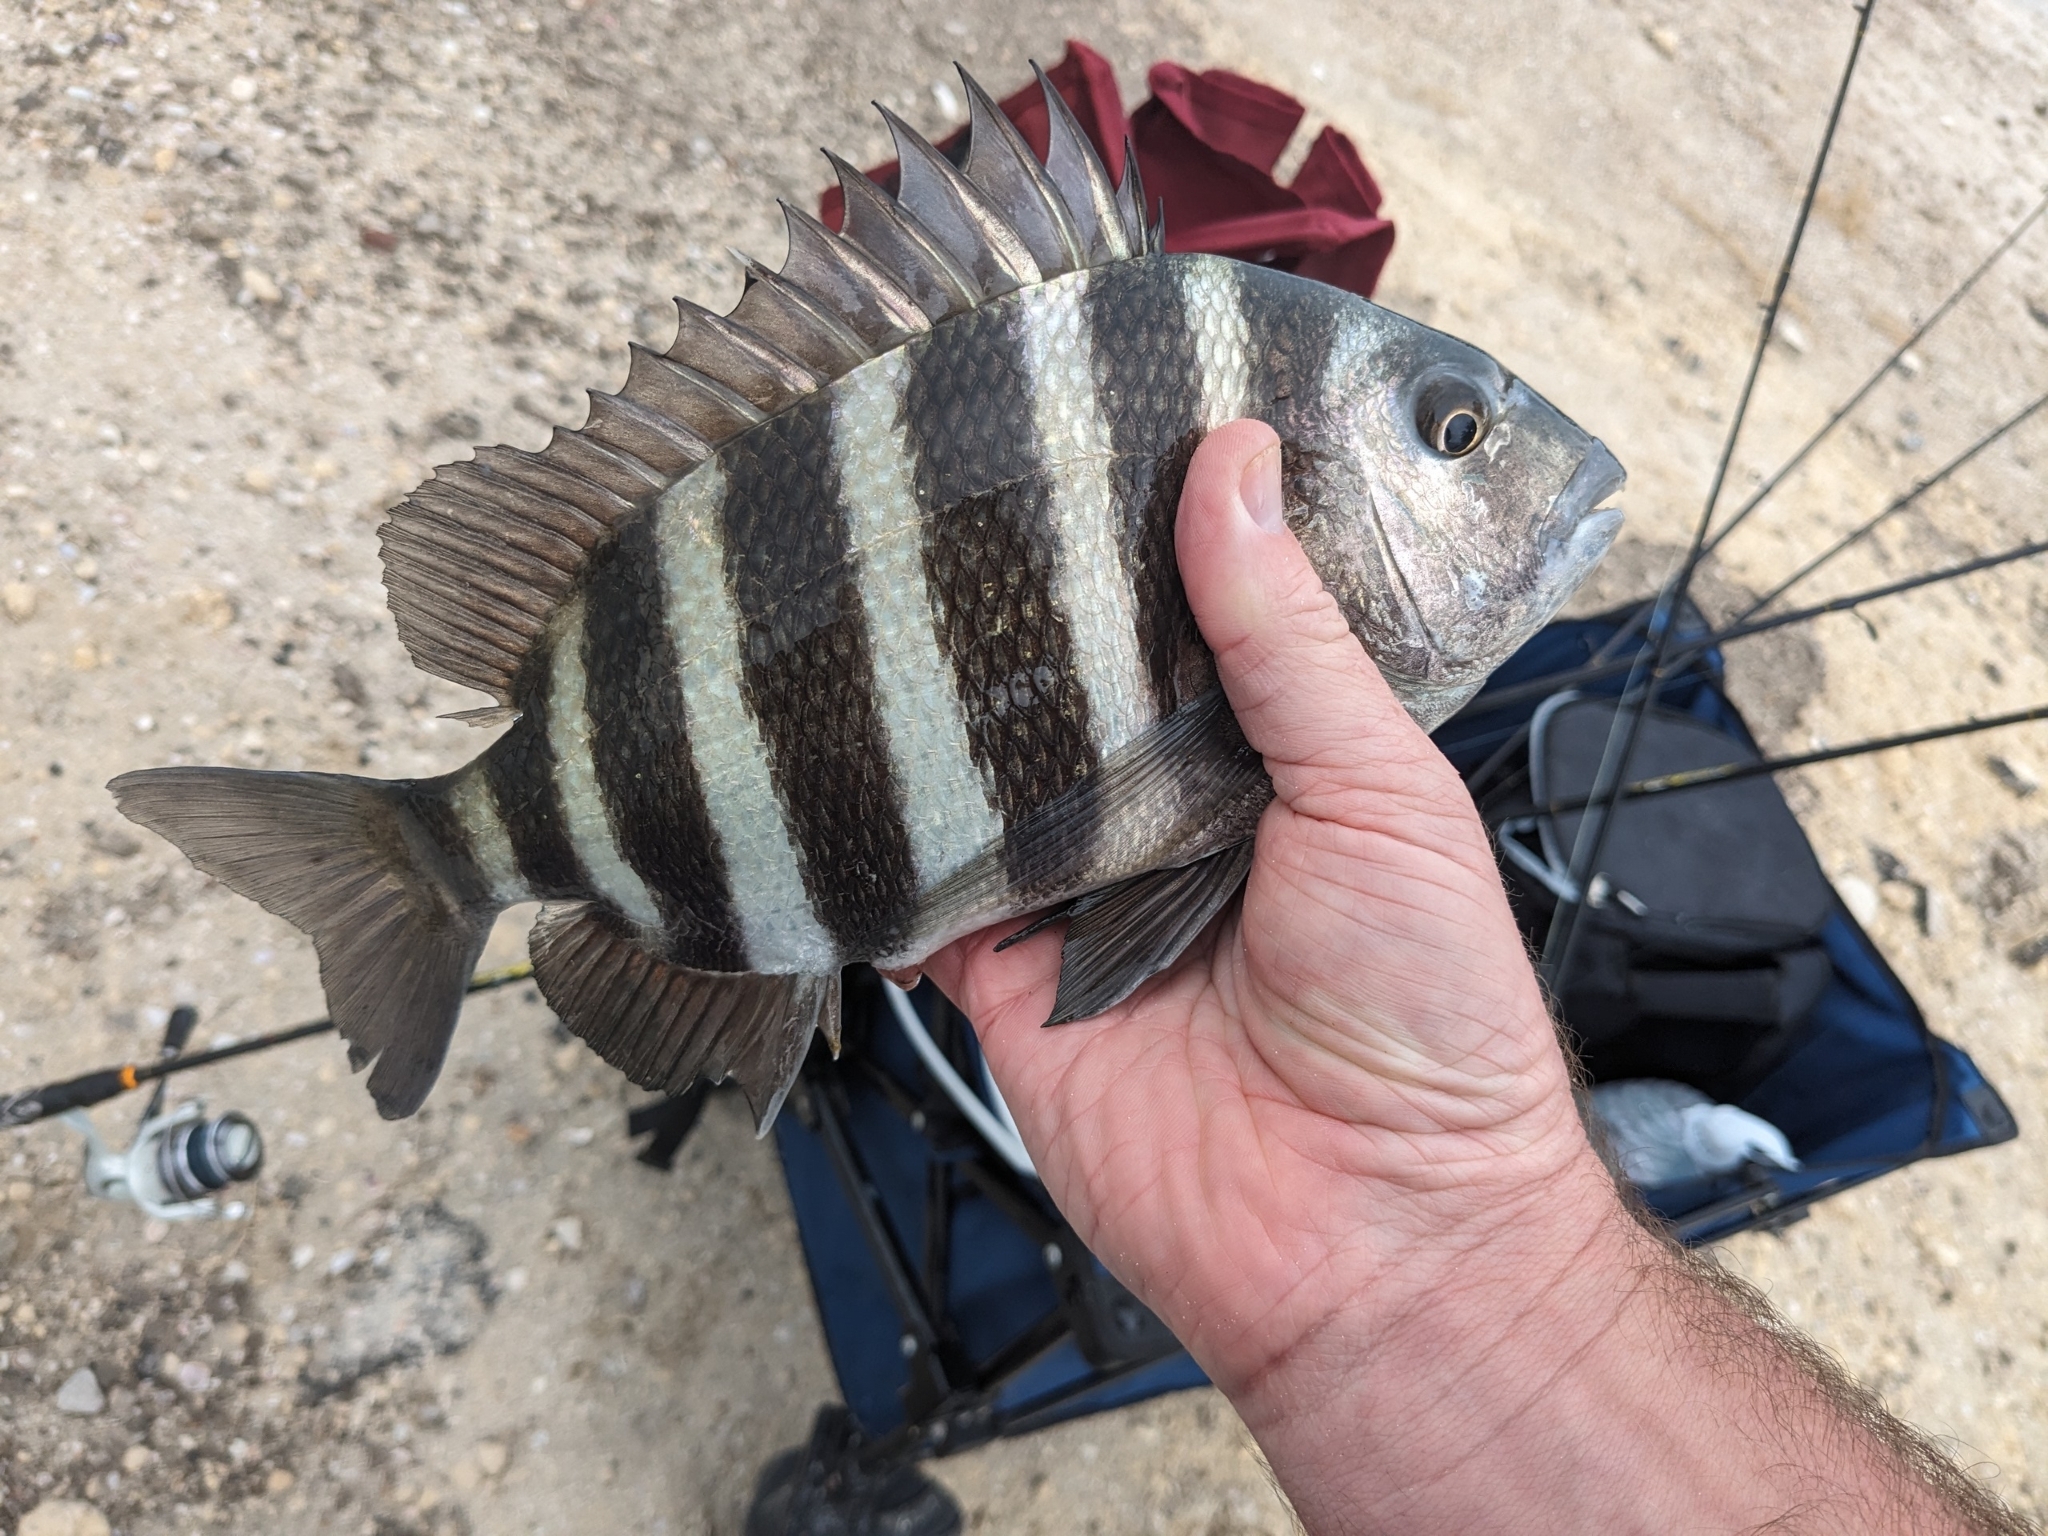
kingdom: Animalia
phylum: Chordata
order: Perciformes
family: Sparidae
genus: Archosargus
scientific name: Archosargus probatocephalus
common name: Sheepshead
